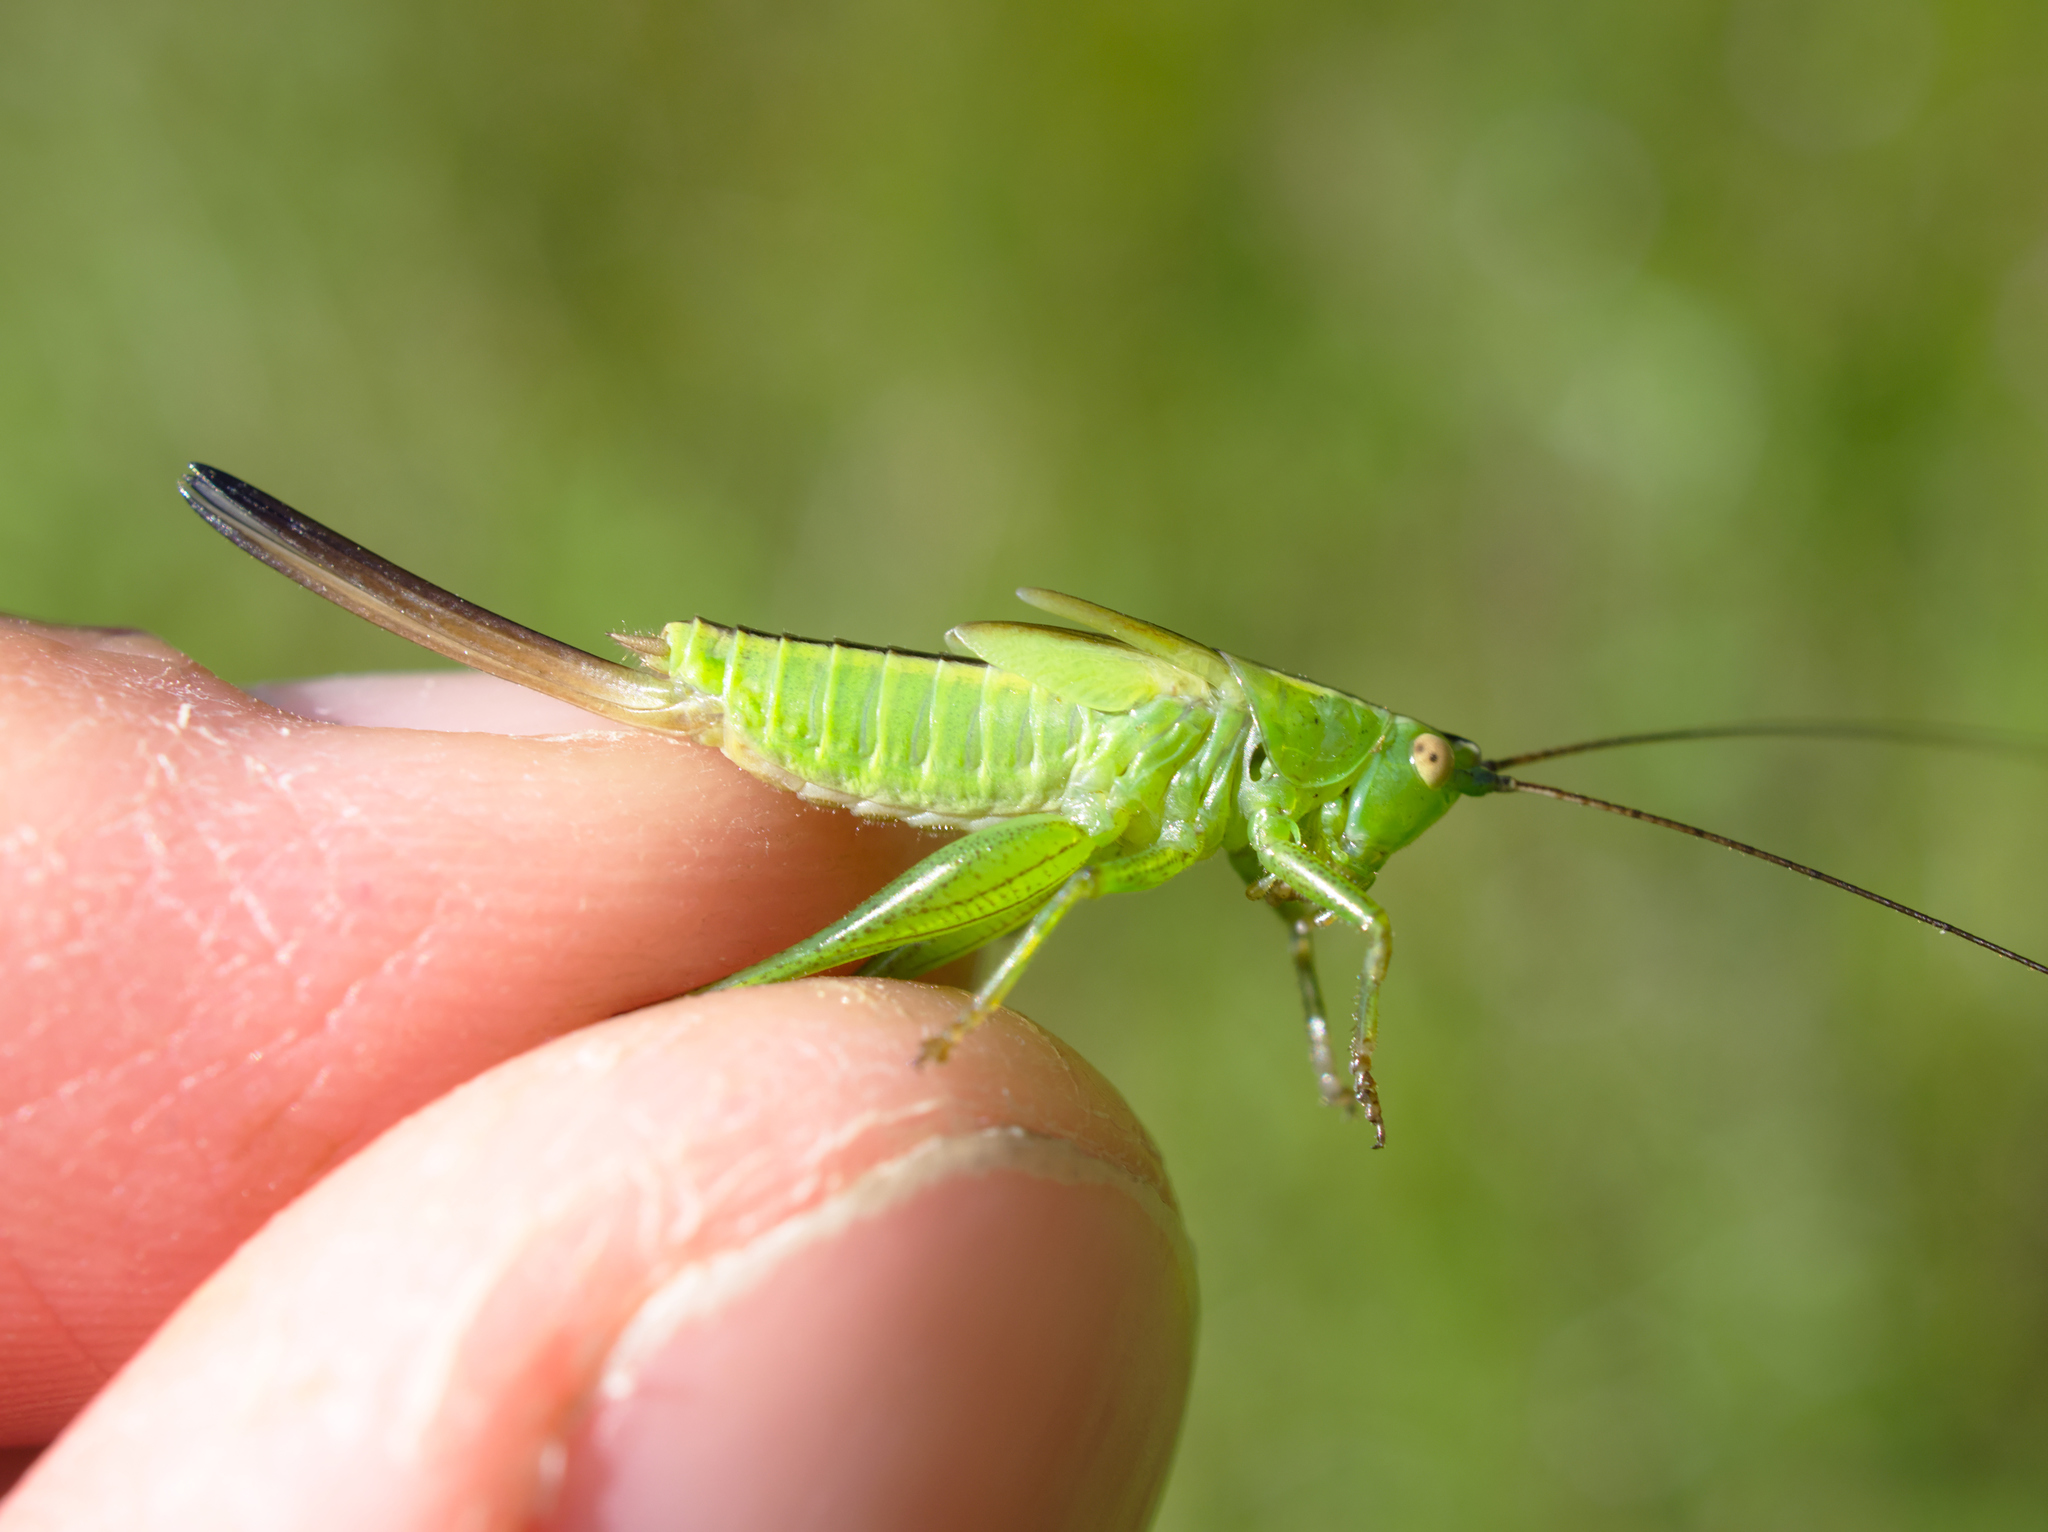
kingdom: Animalia
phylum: Arthropoda
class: Insecta
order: Orthoptera
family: Tettigoniidae
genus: Conocephalus
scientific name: Conocephalus fuscus
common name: Long-winged conehead
